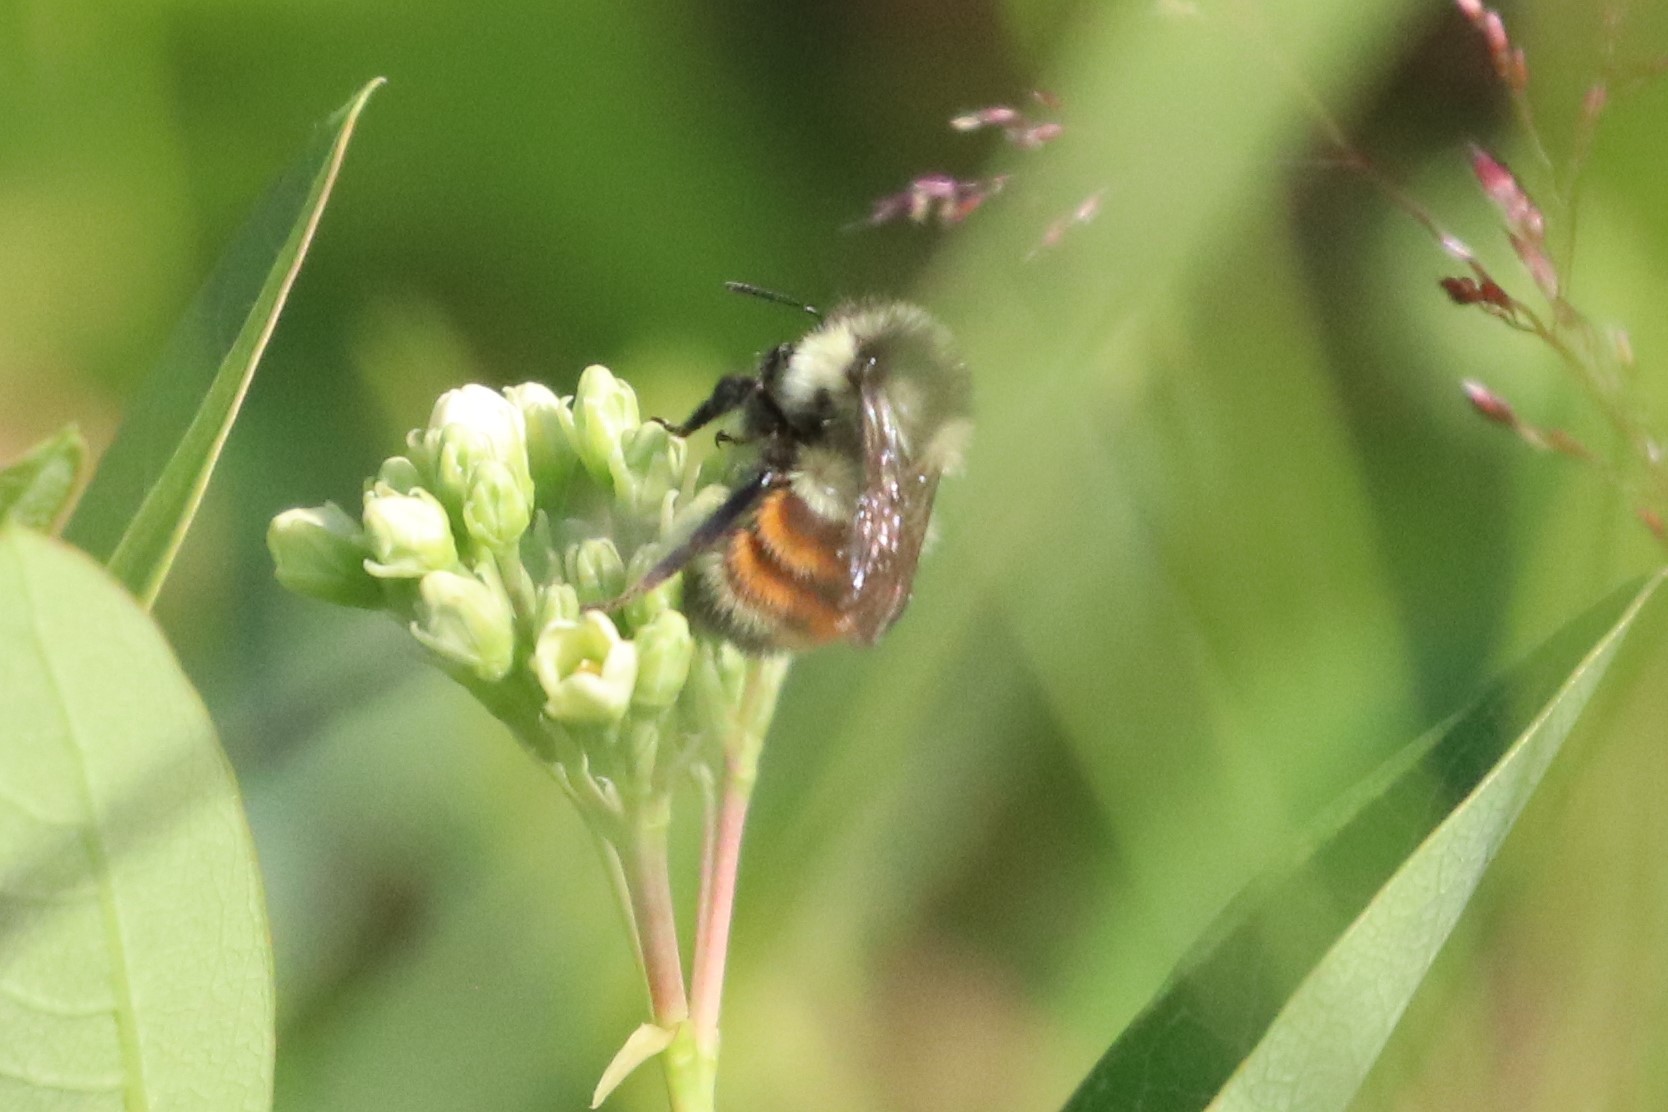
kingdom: Animalia
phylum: Arthropoda
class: Insecta
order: Hymenoptera
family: Apidae
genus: Bombus
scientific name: Bombus ternarius
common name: Tri-colored bumble bee
